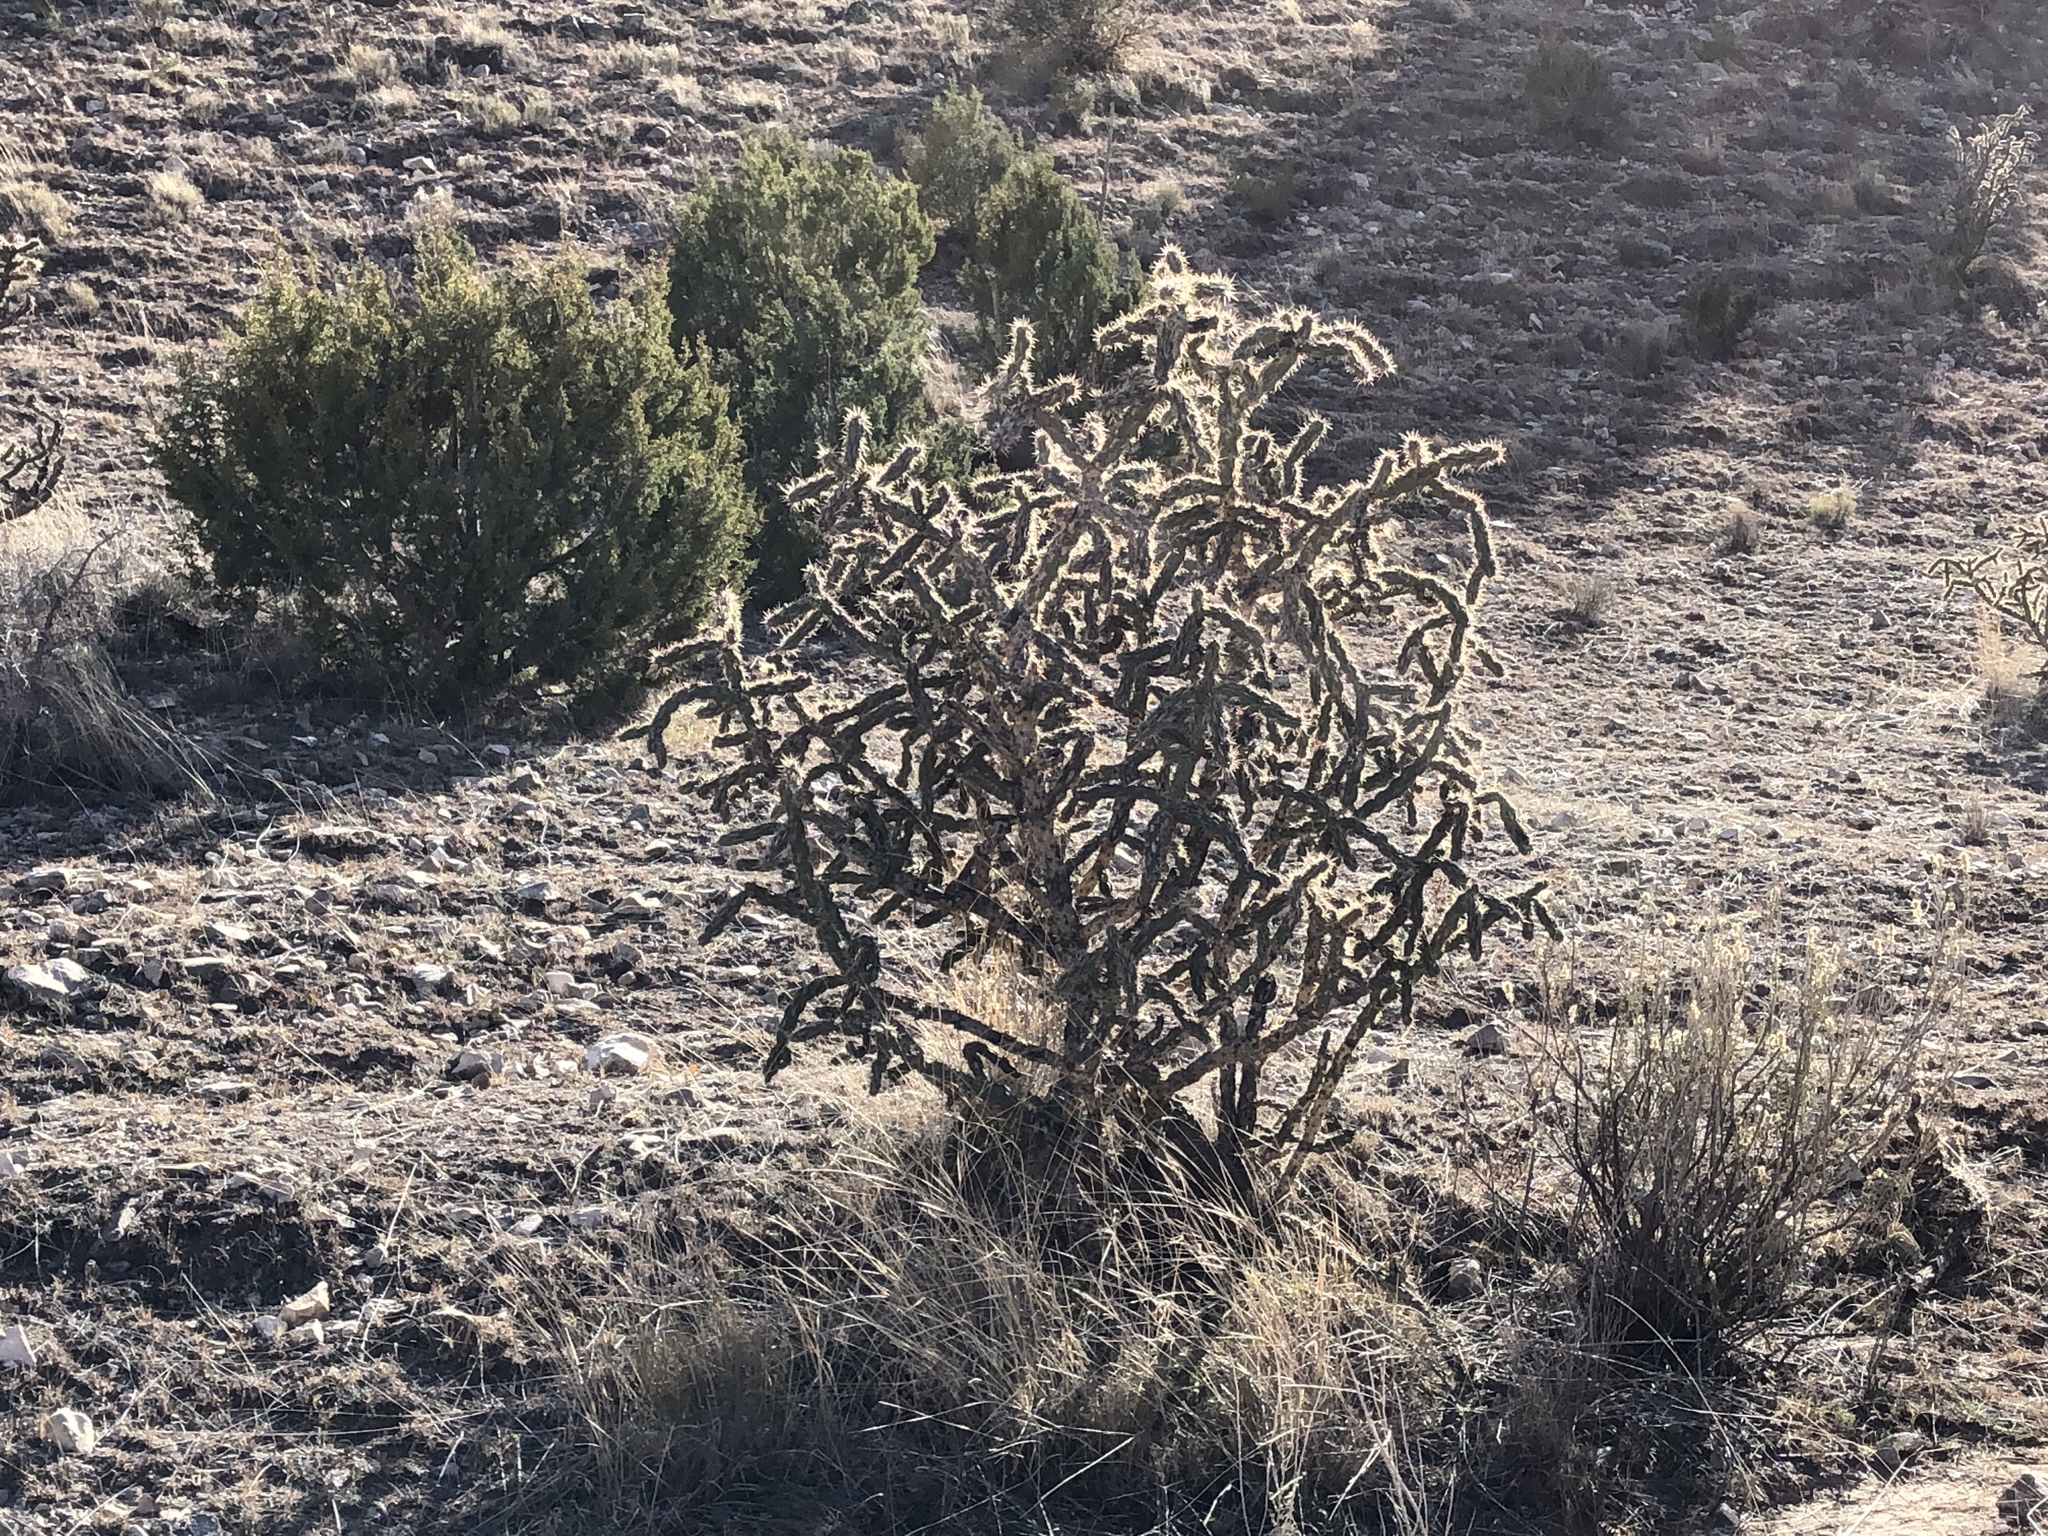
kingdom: Plantae
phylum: Tracheophyta
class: Magnoliopsida
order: Caryophyllales
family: Cactaceae
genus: Cylindropuntia
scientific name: Cylindropuntia imbricata
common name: Candelabrum cactus
